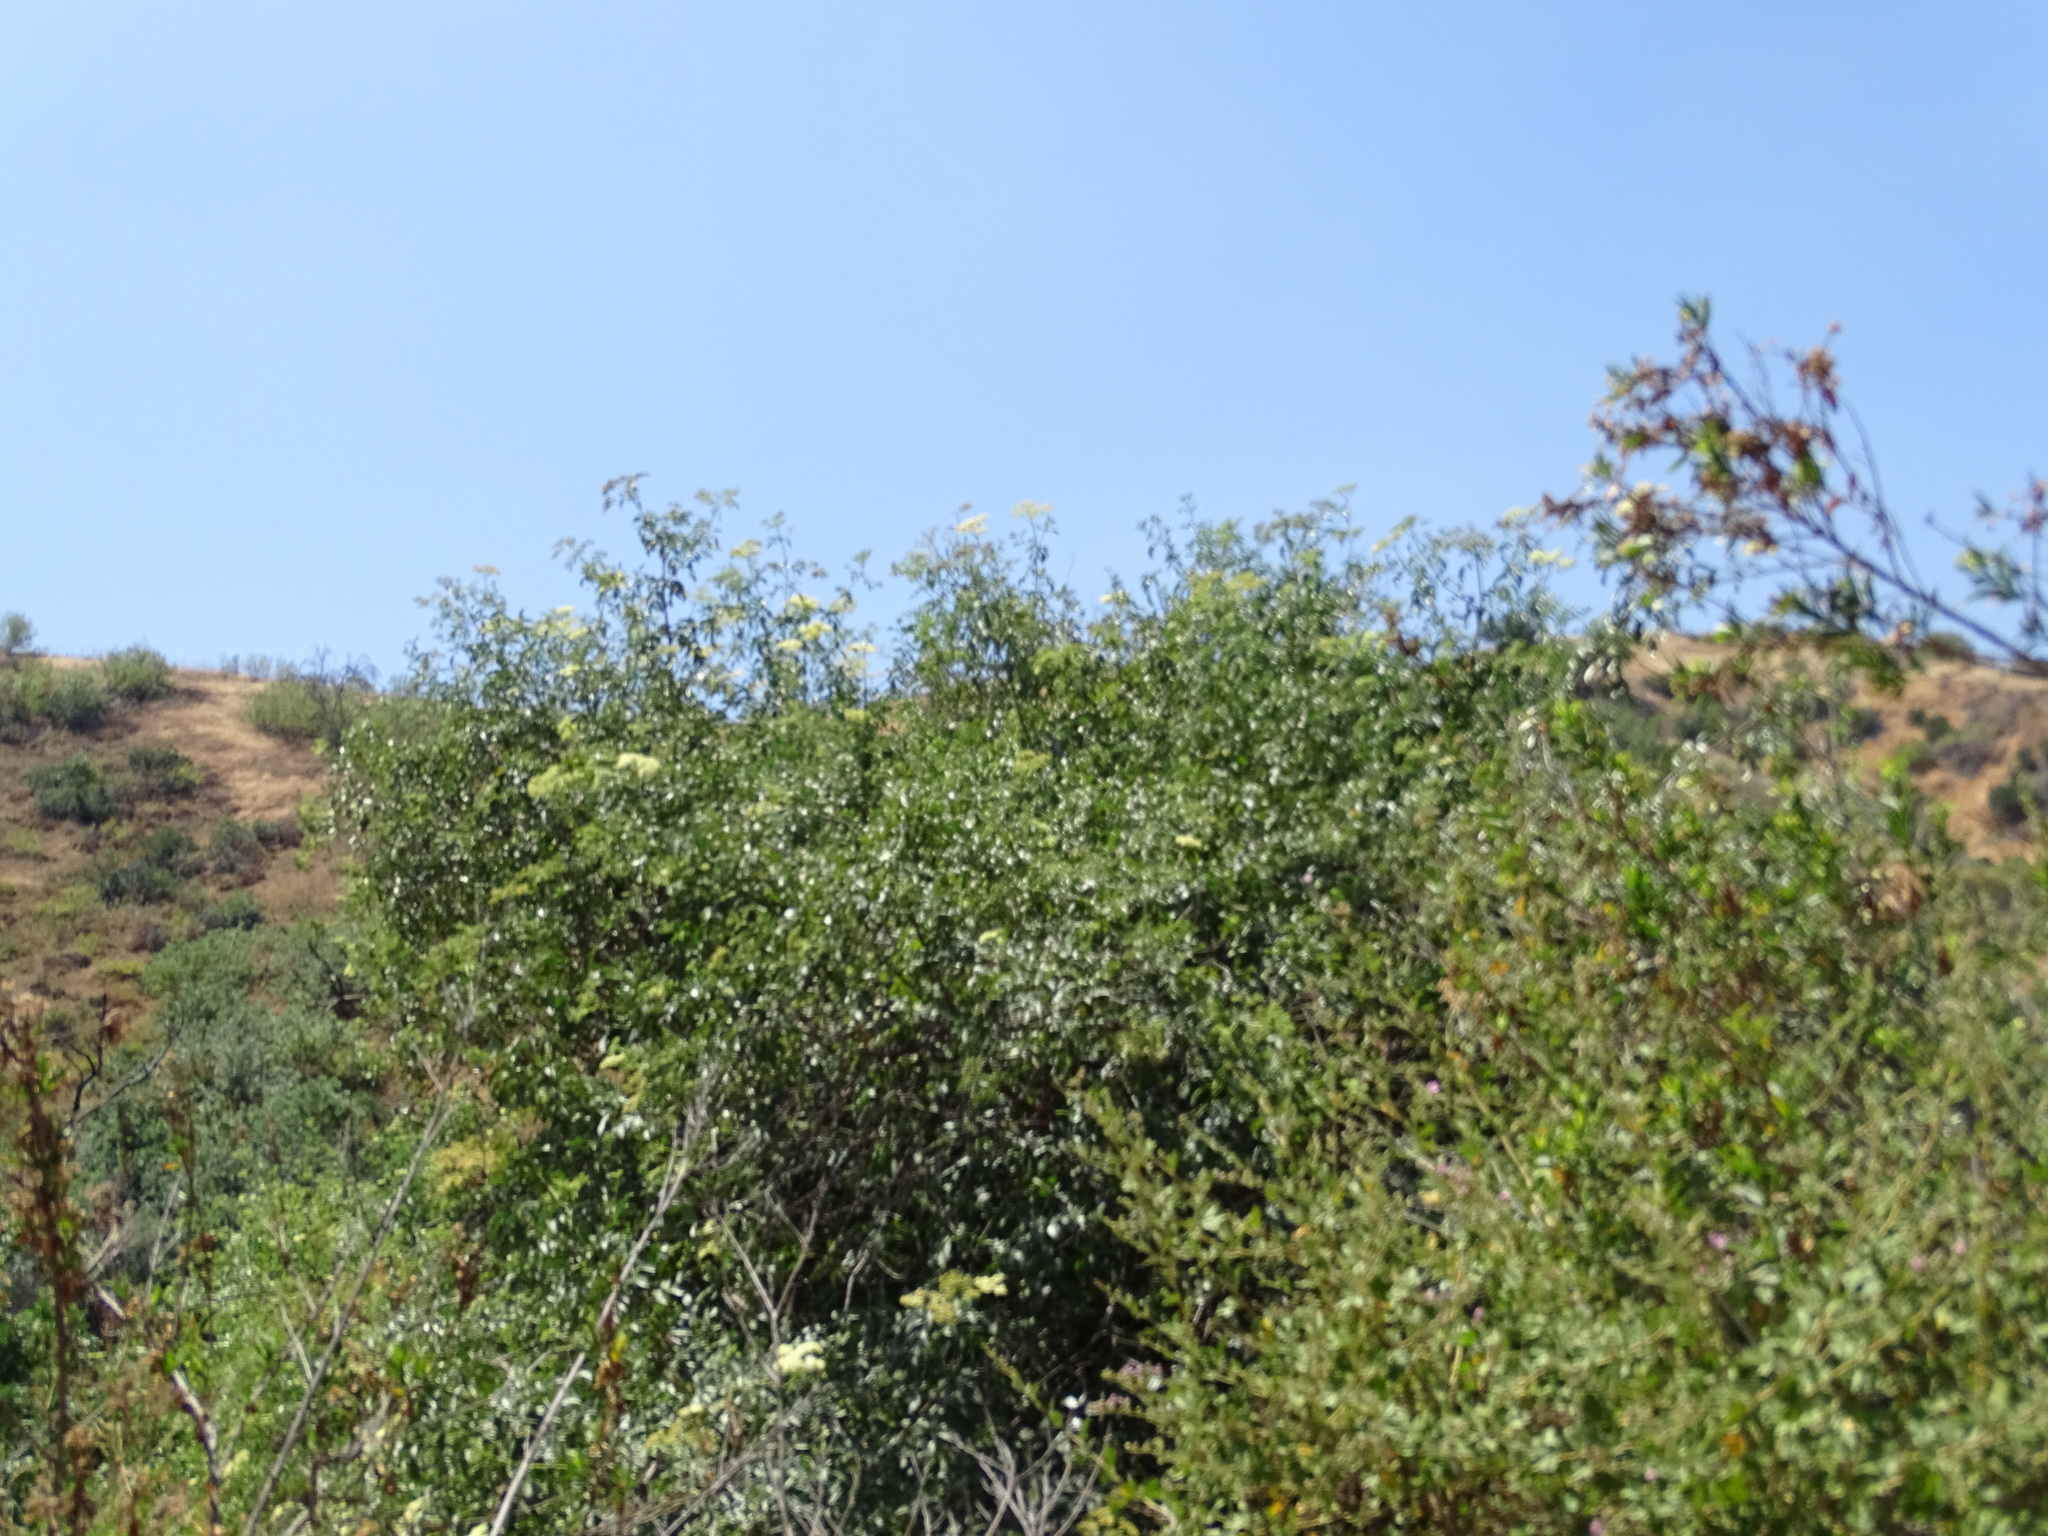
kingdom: Plantae
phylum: Tracheophyta
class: Magnoliopsida
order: Dipsacales
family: Viburnaceae
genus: Sambucus
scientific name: Sambucus cerulea
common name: Blue elder
